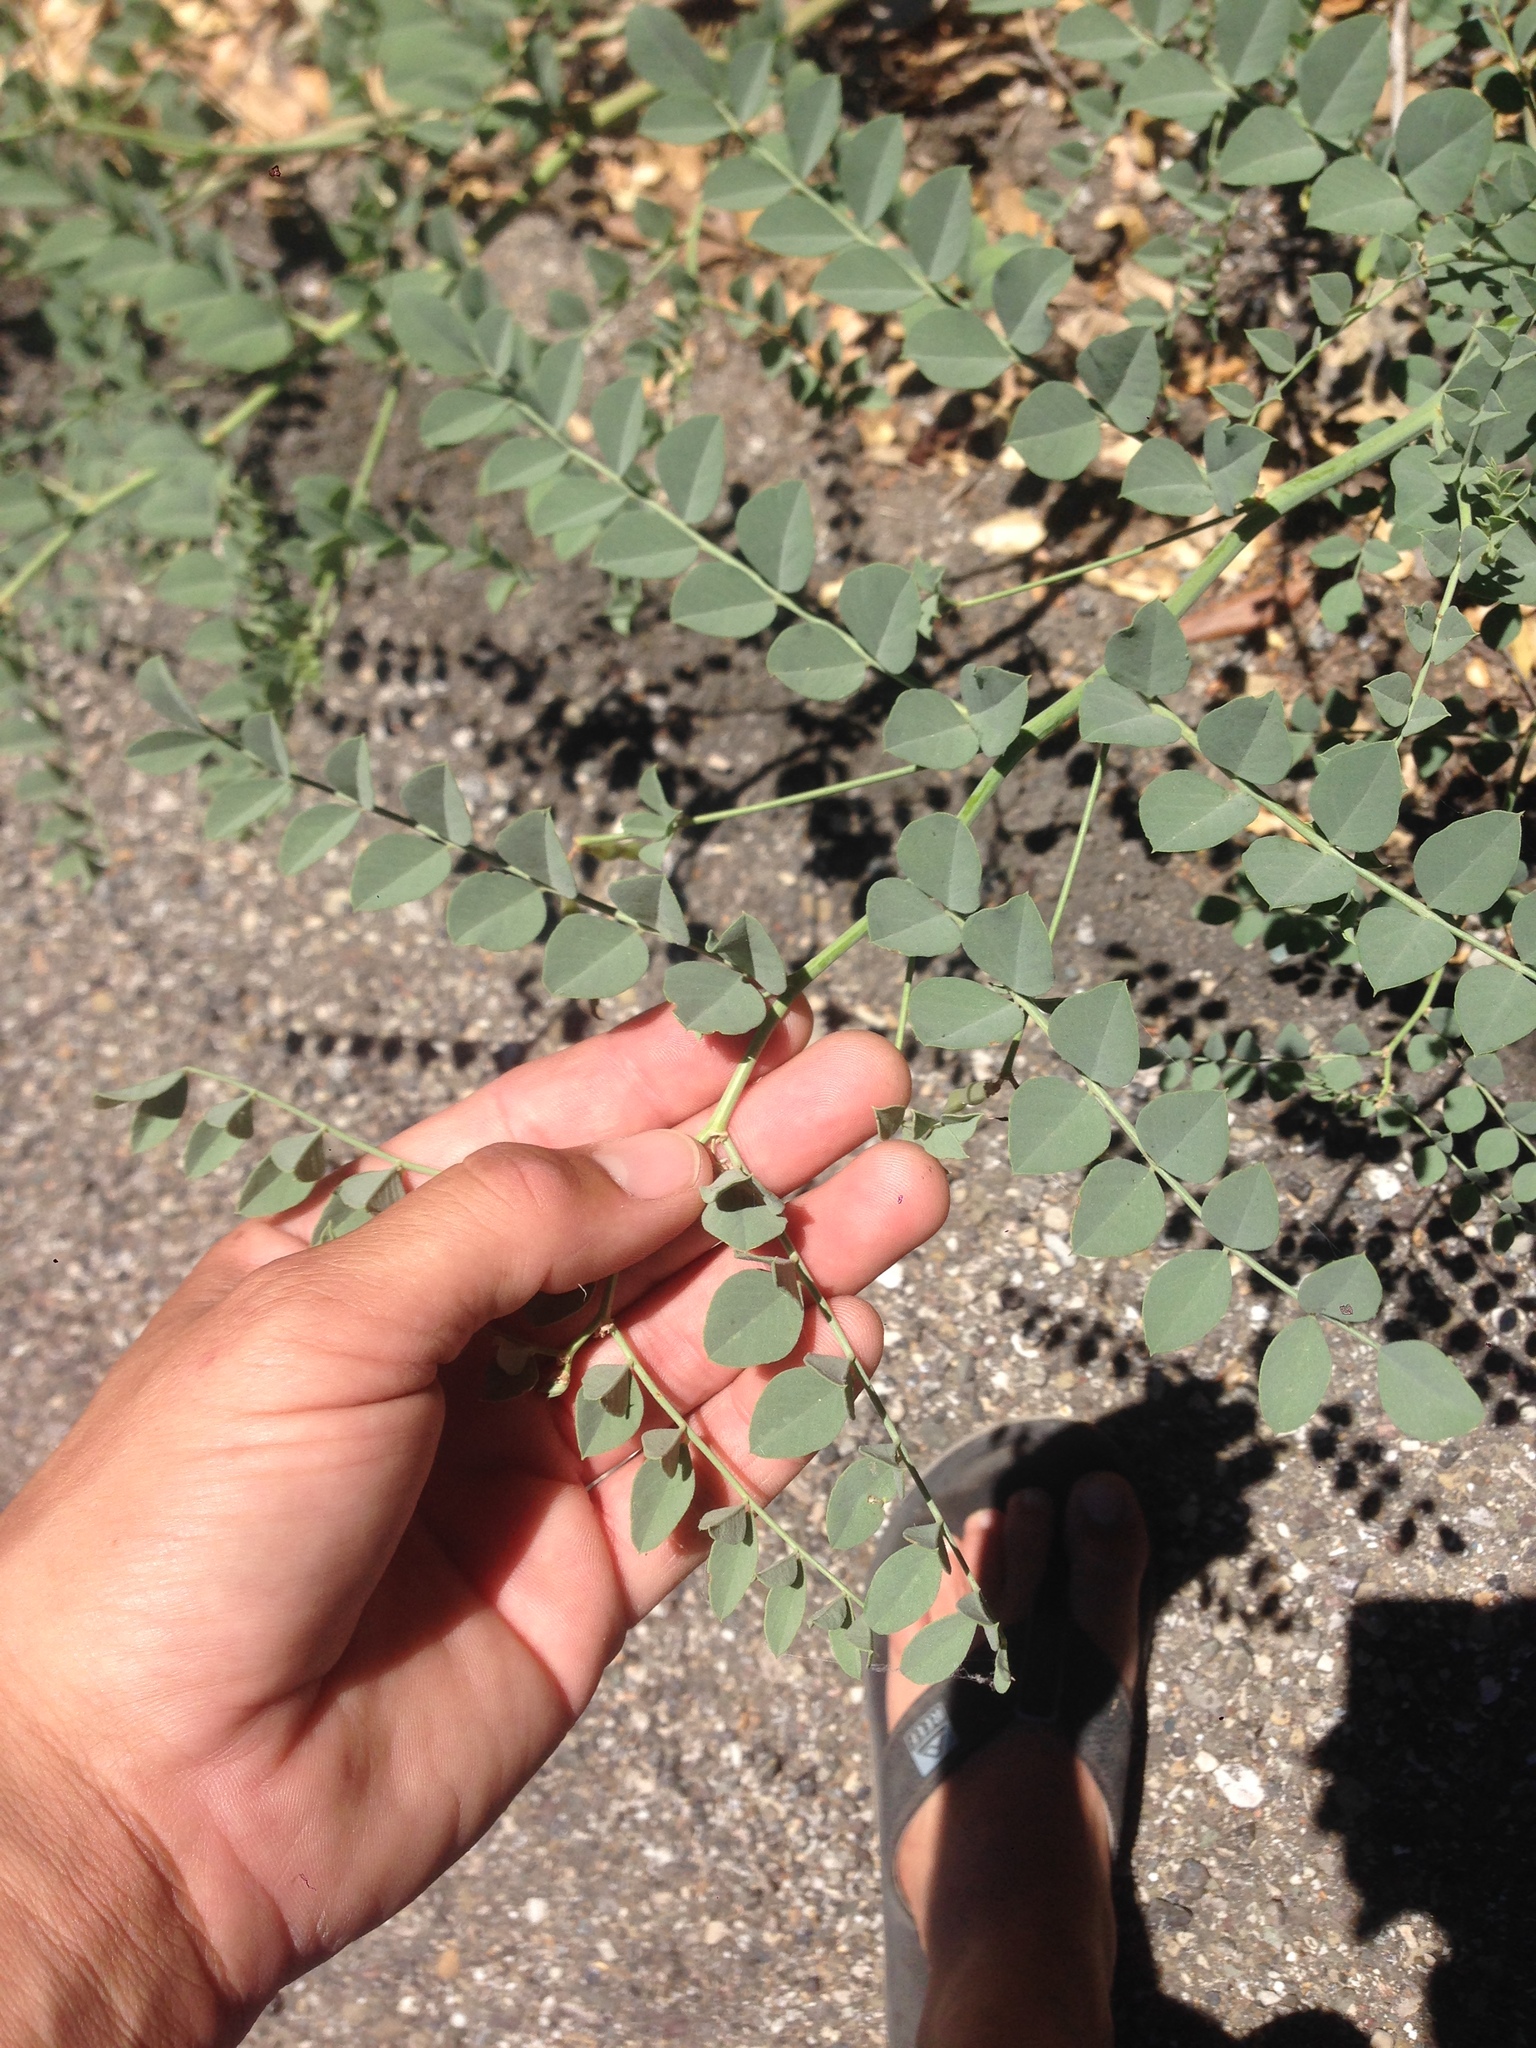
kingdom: Plantae
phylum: Tracheophyta
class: Magnoliopsida
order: Fabales
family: Fabaceae
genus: Hosackia
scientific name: Hosackia crassifolia
